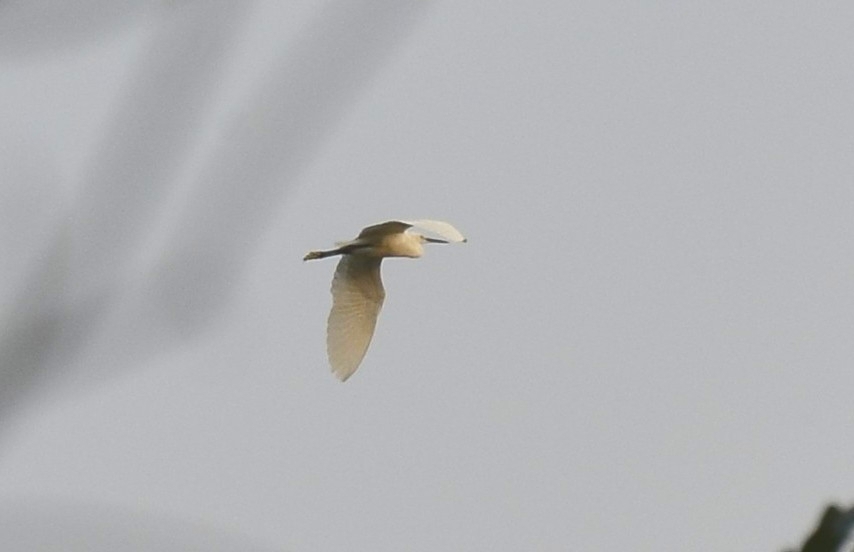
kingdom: Animalia
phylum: Chordata
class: Aves
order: Pelecaniformes
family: Ardeidae
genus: Egretta
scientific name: Egretta garzetta
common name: Little egret
